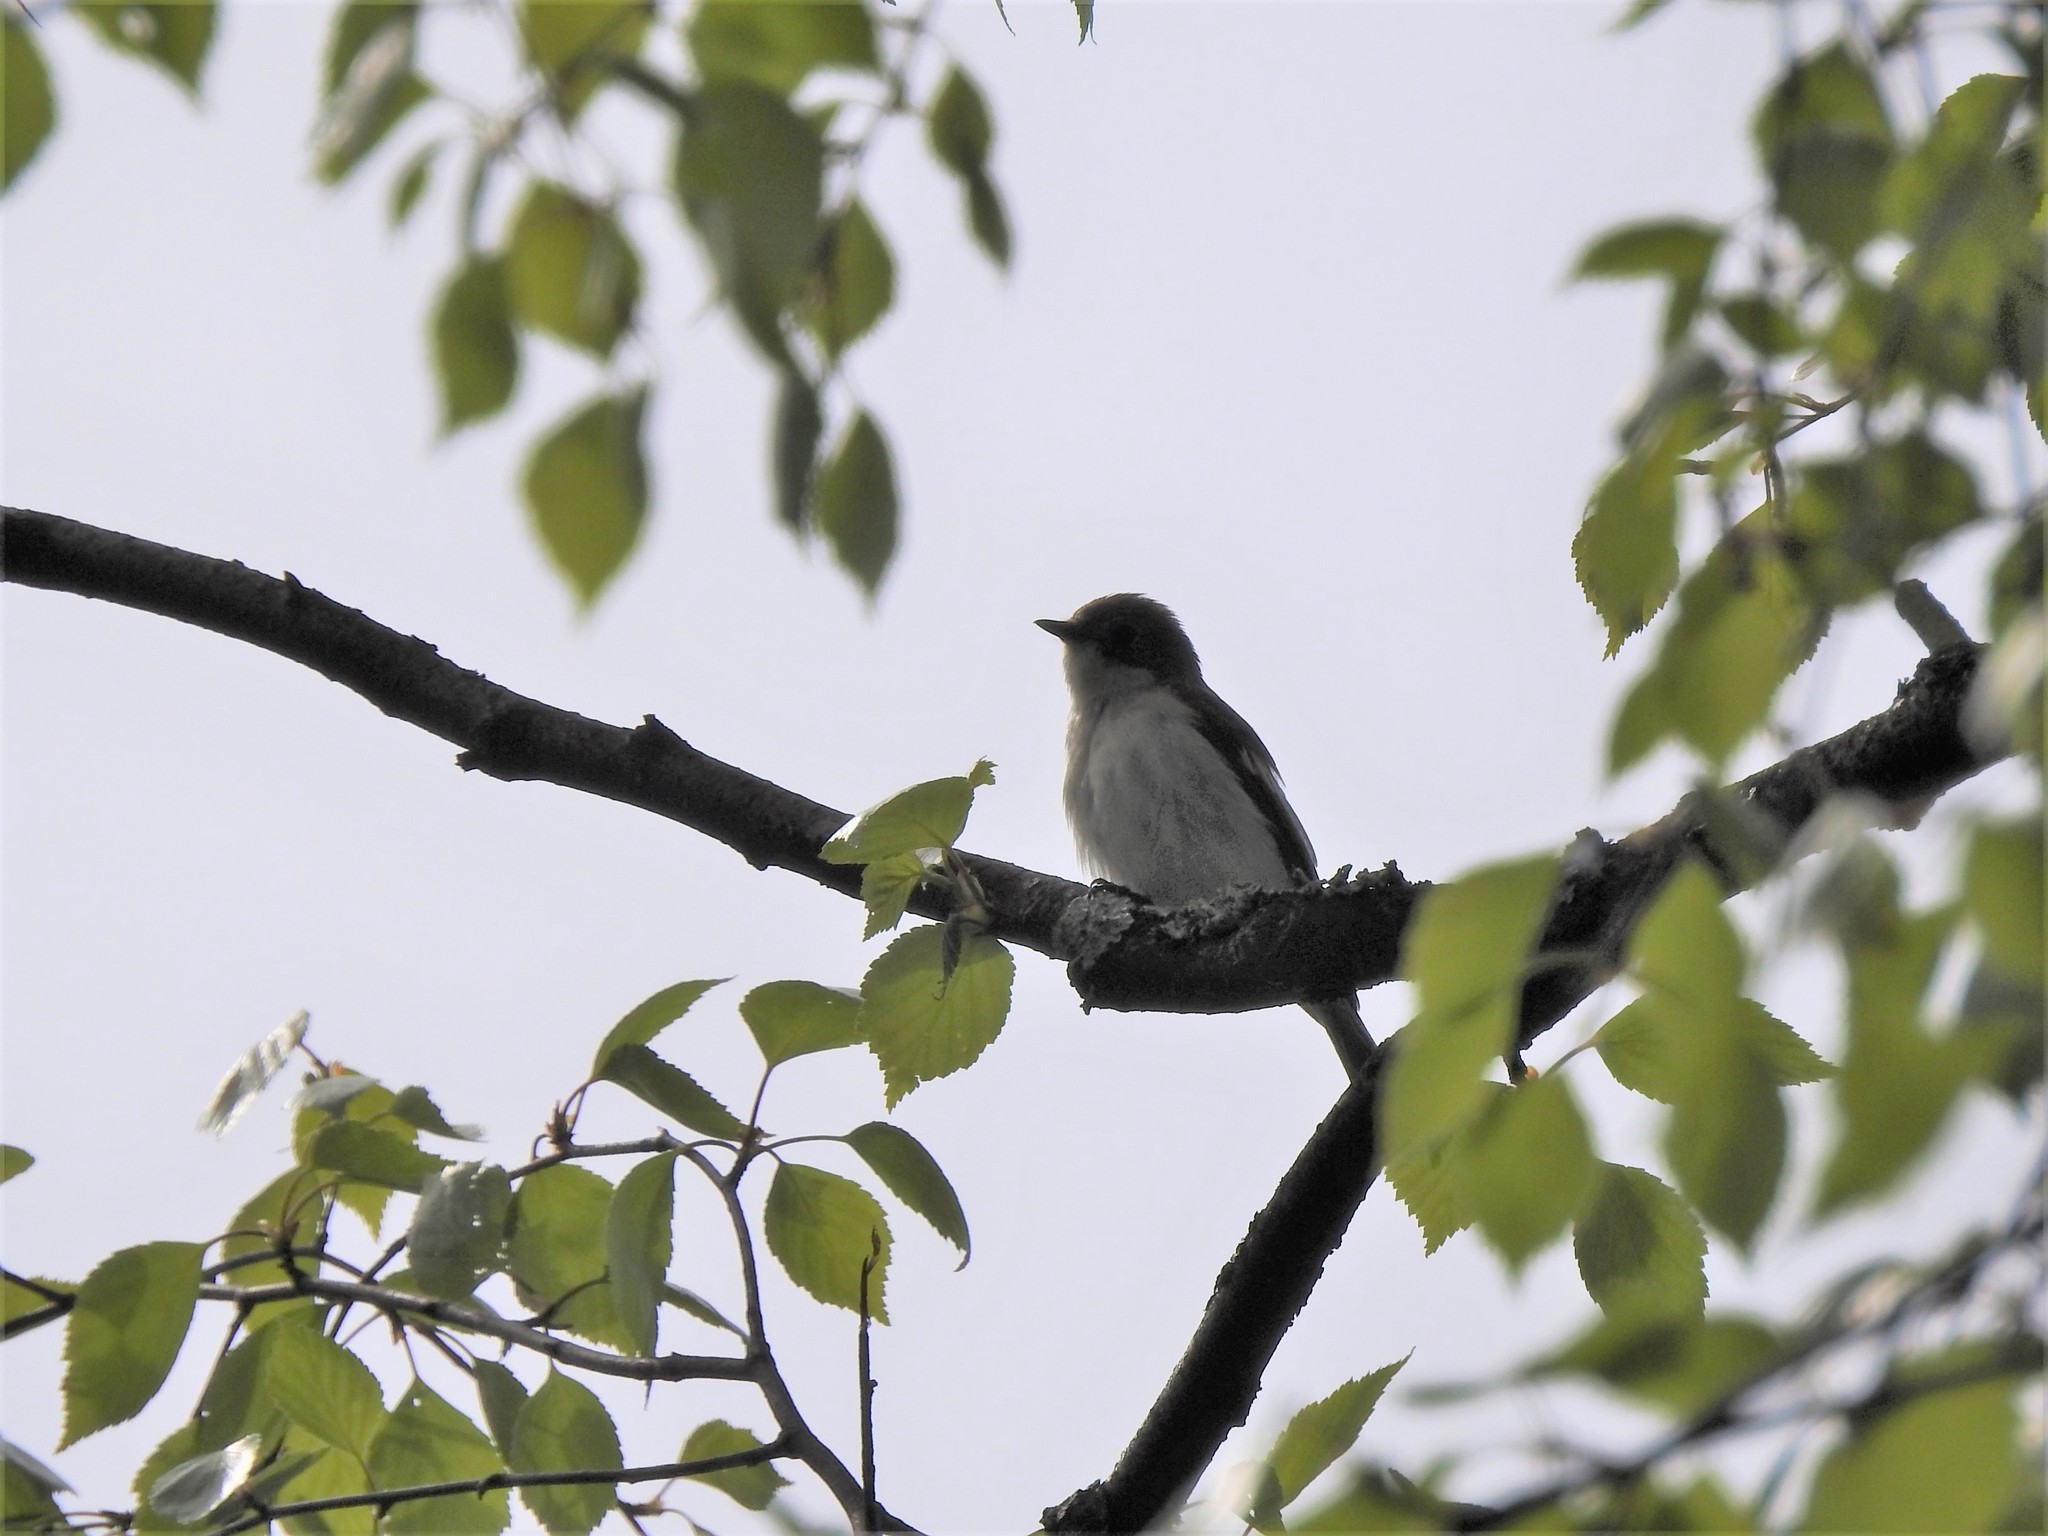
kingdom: Animalia
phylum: Chordata
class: Aves
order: Passeriformes
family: Muscicapidae
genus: Ficedula
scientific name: Ficedula hypoleuca
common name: European pied flycatcher
